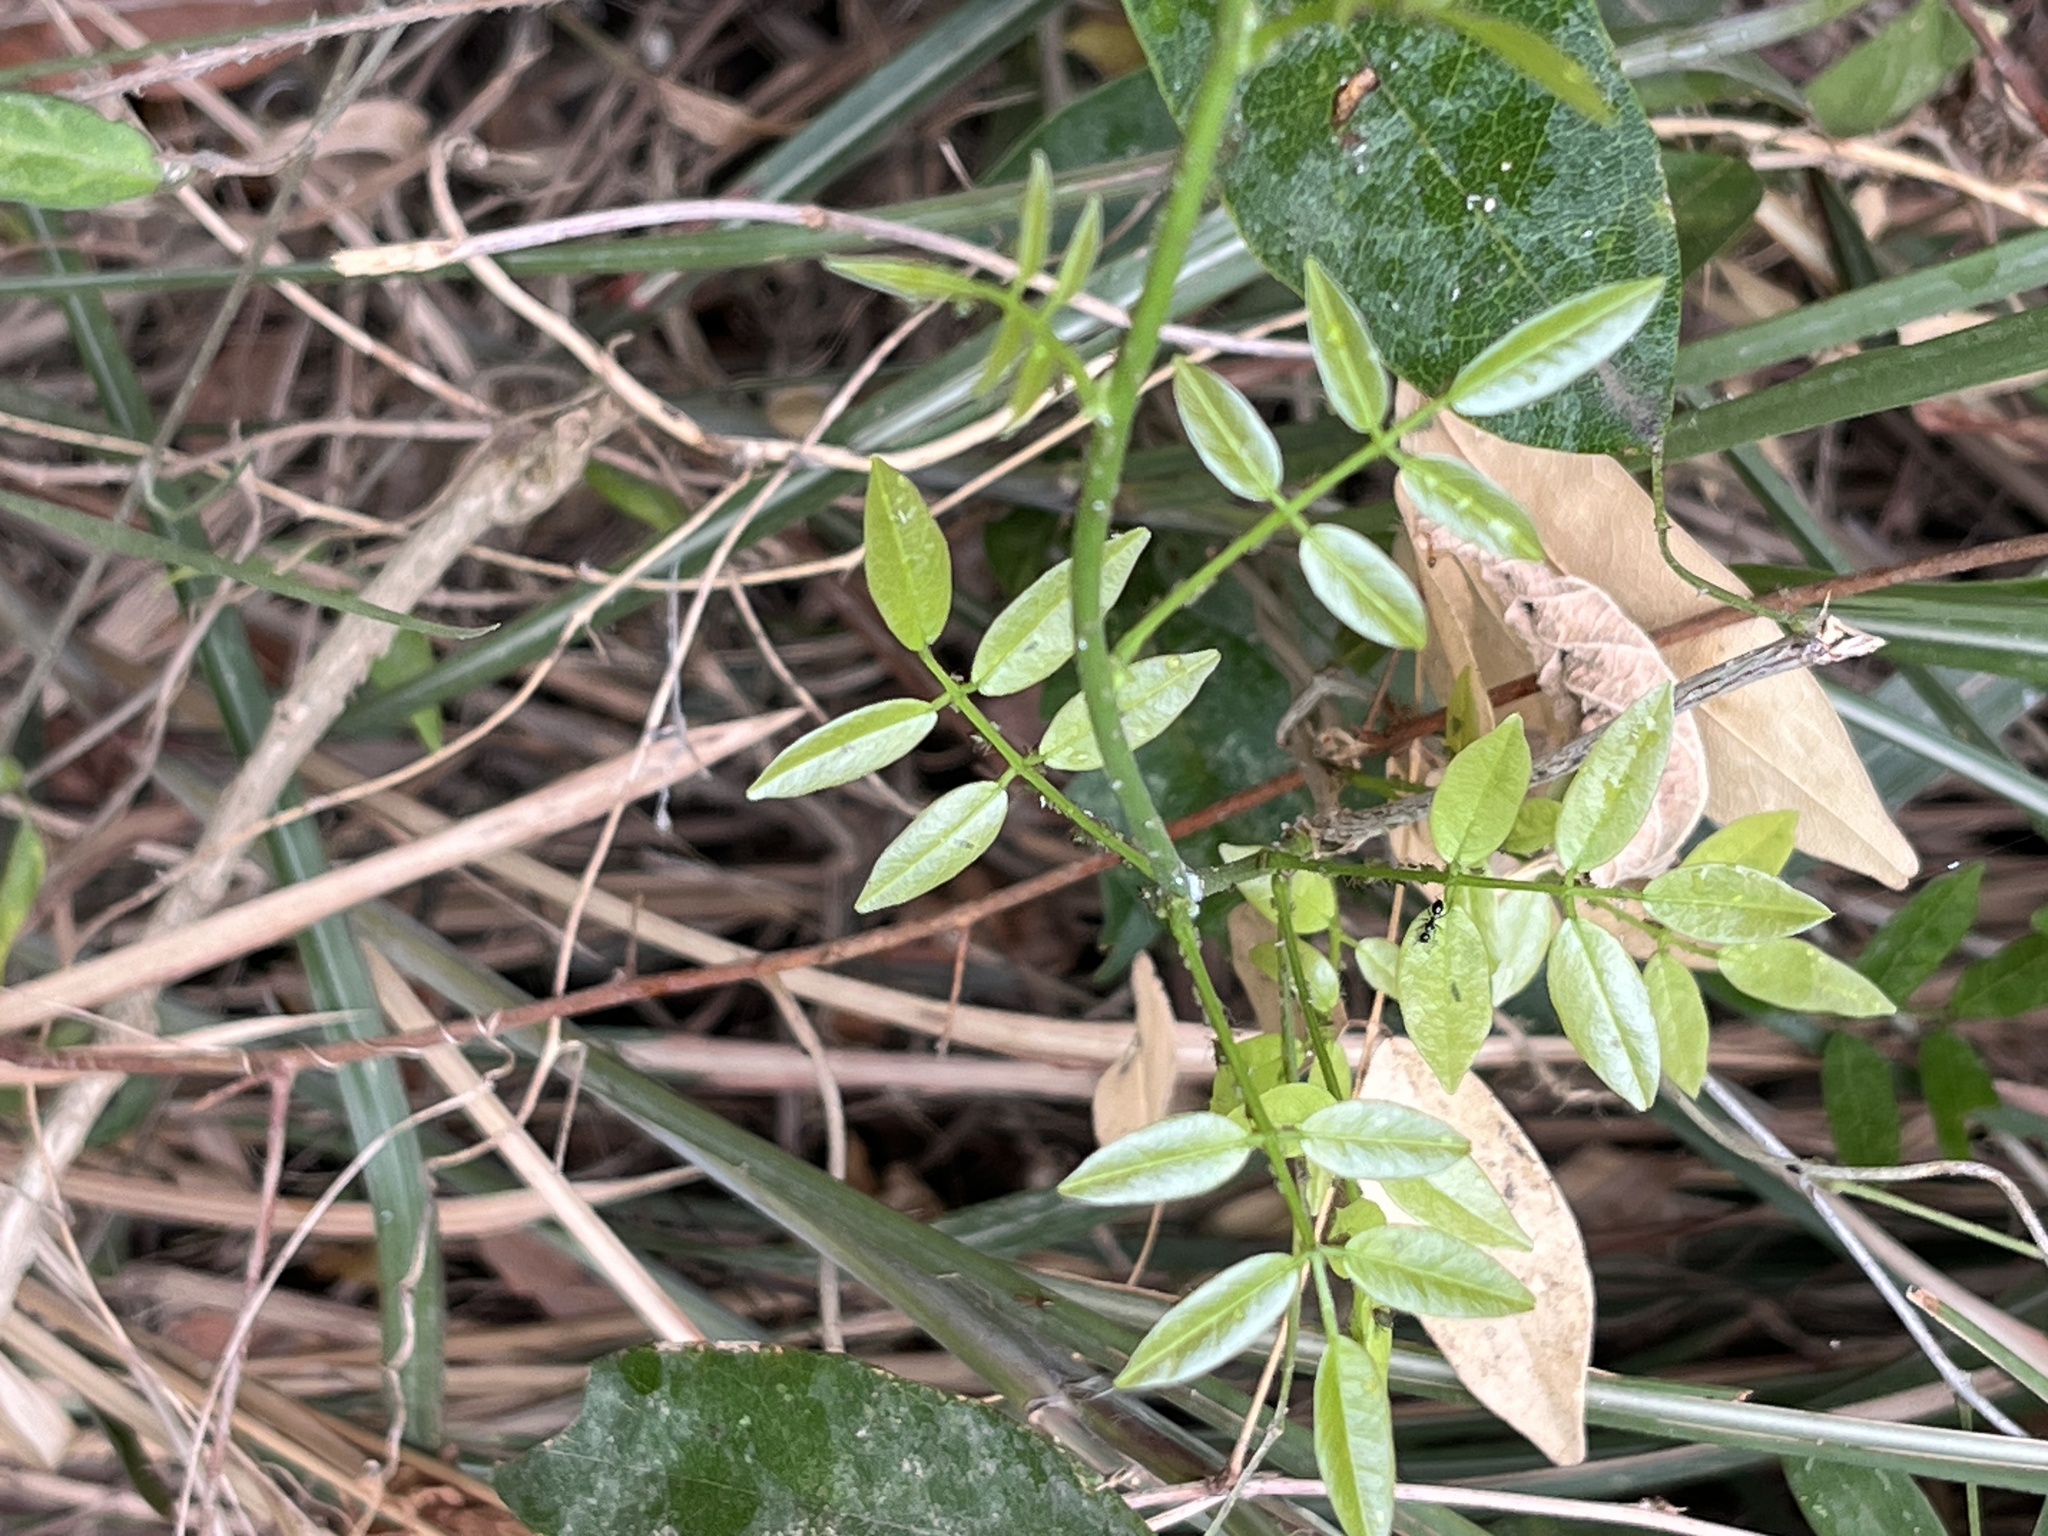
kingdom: Plantae
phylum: Tracheophyta
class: Magnoliopsida
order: Fabales
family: Fabaceae
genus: Wisteriopsis
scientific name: Wisteriopsis reticulata
